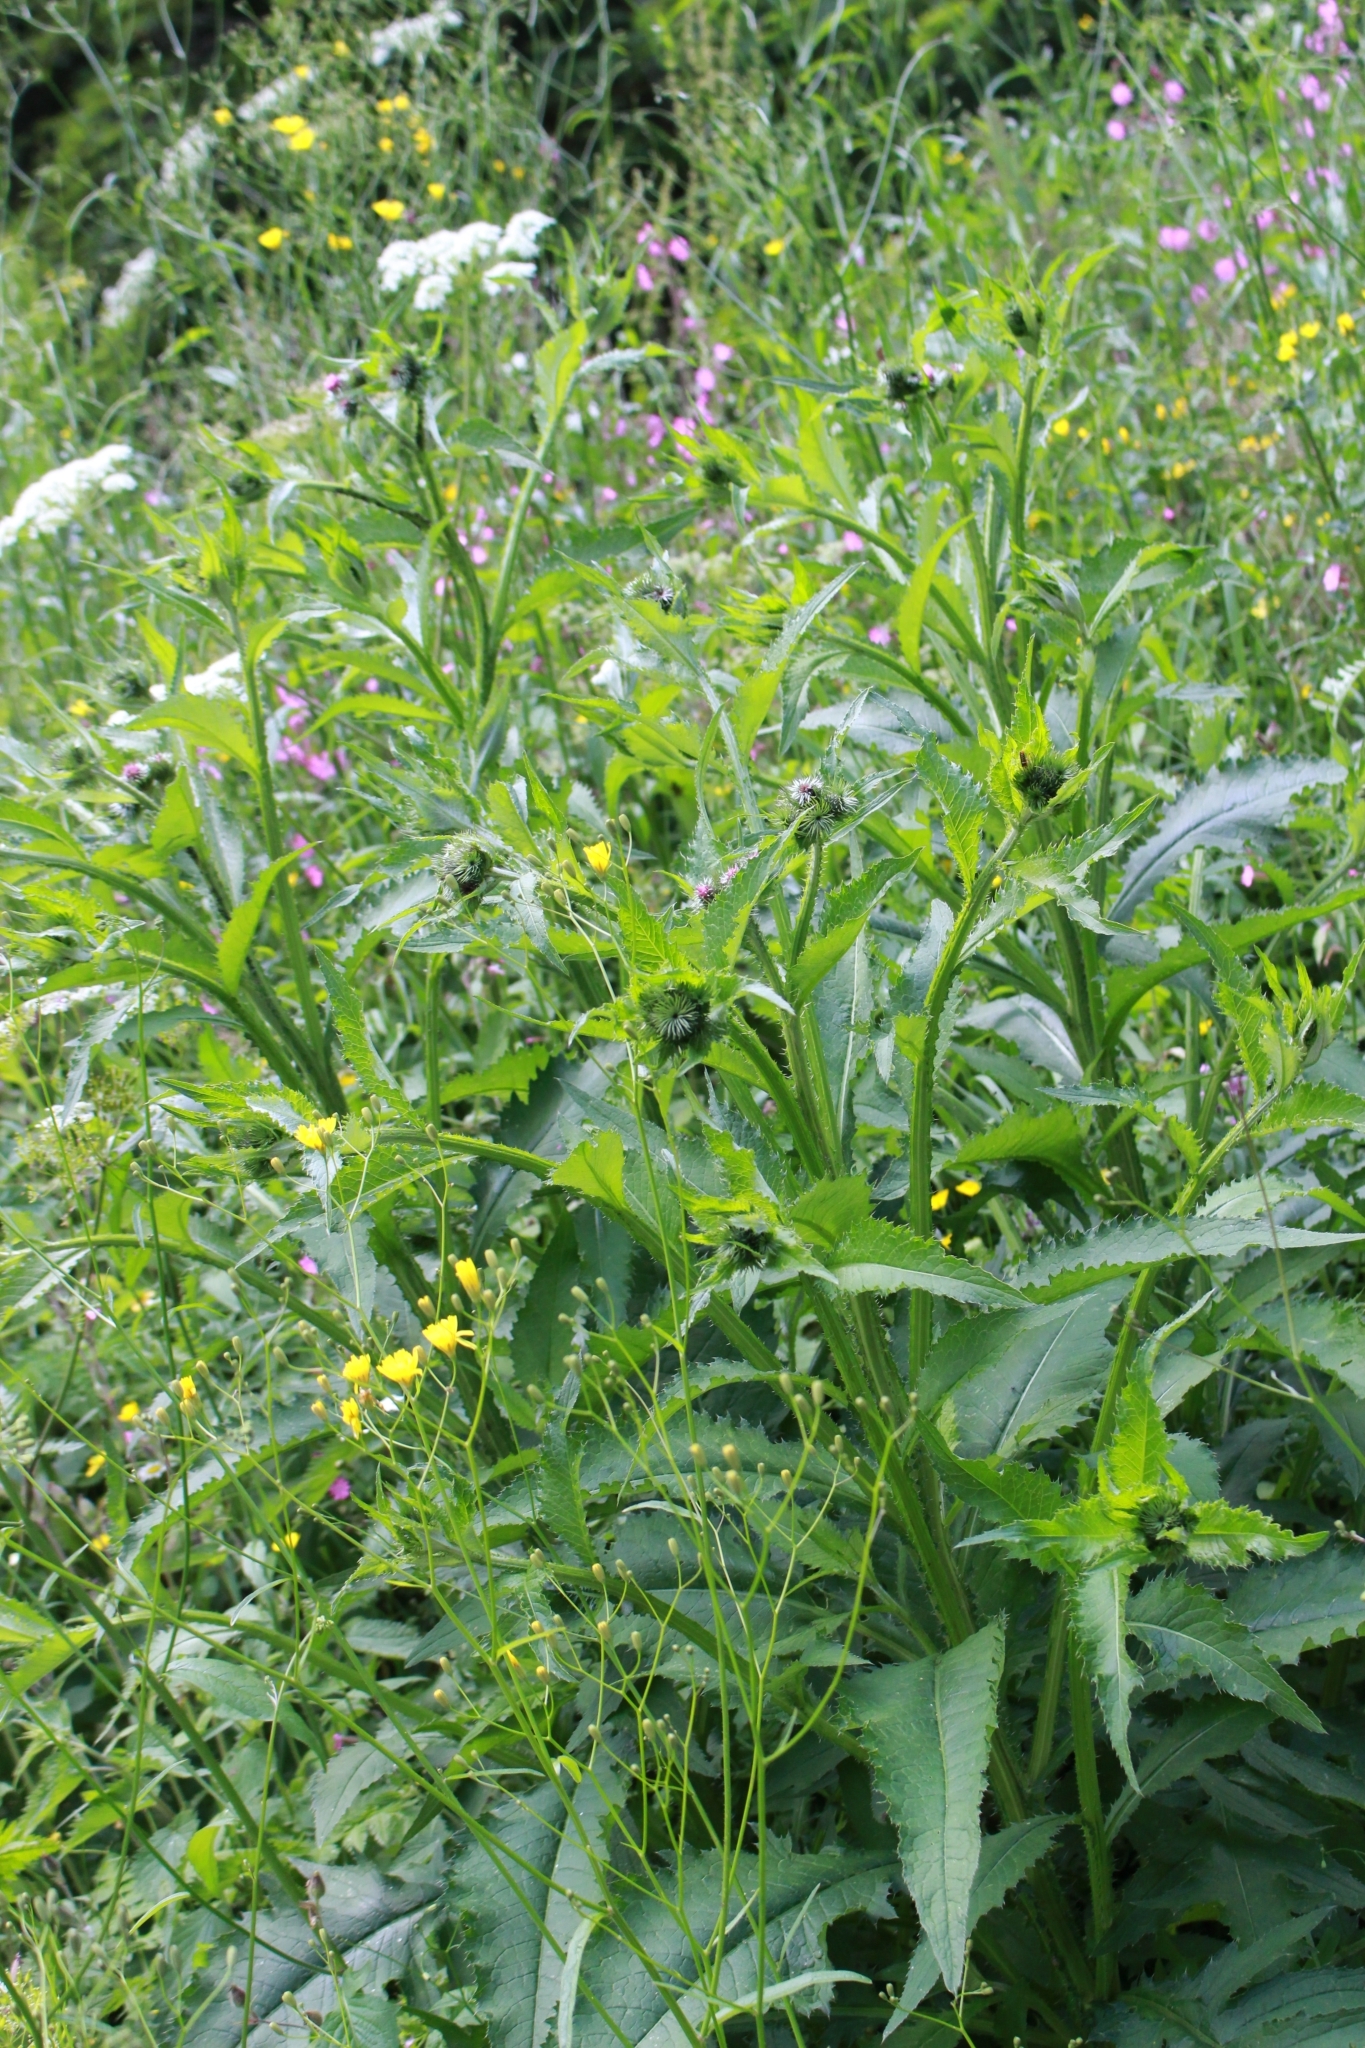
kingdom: Plantae
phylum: Tracheophyta
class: Magnoliopsida
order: Asterales
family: Asteraceae
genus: Carduus
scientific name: Carduus personata
